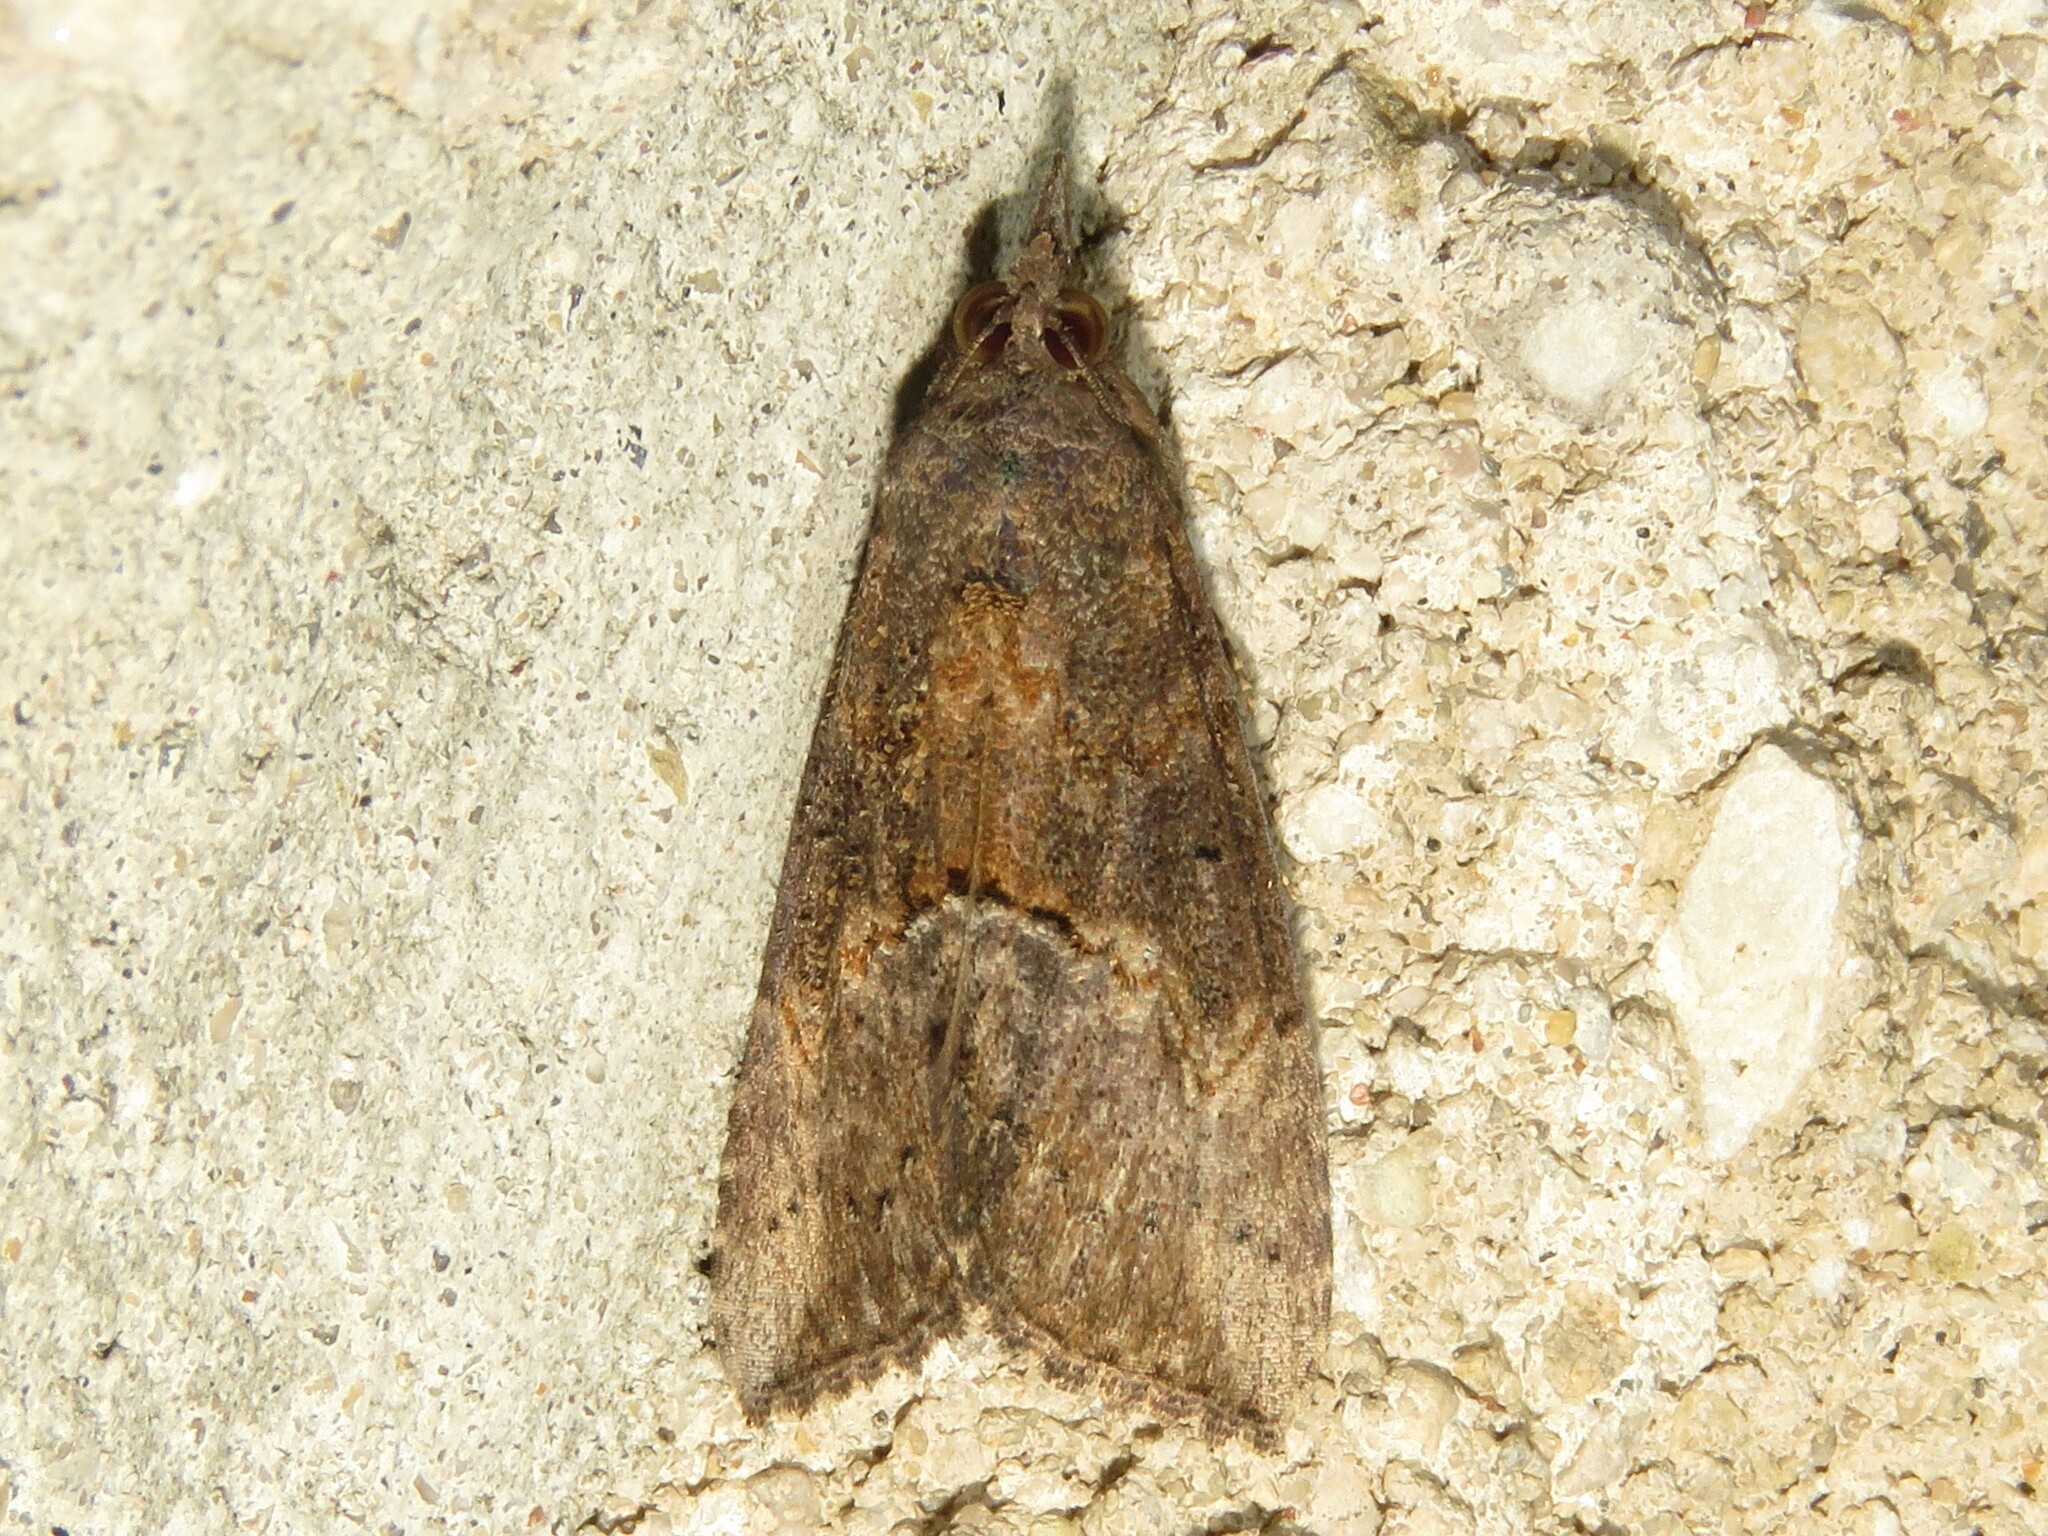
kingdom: Animalia
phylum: Arthropoda
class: Insecta
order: Lepidoptera
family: Erebidae
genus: Hypena
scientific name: Hypena scabra
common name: Green cloverworm
